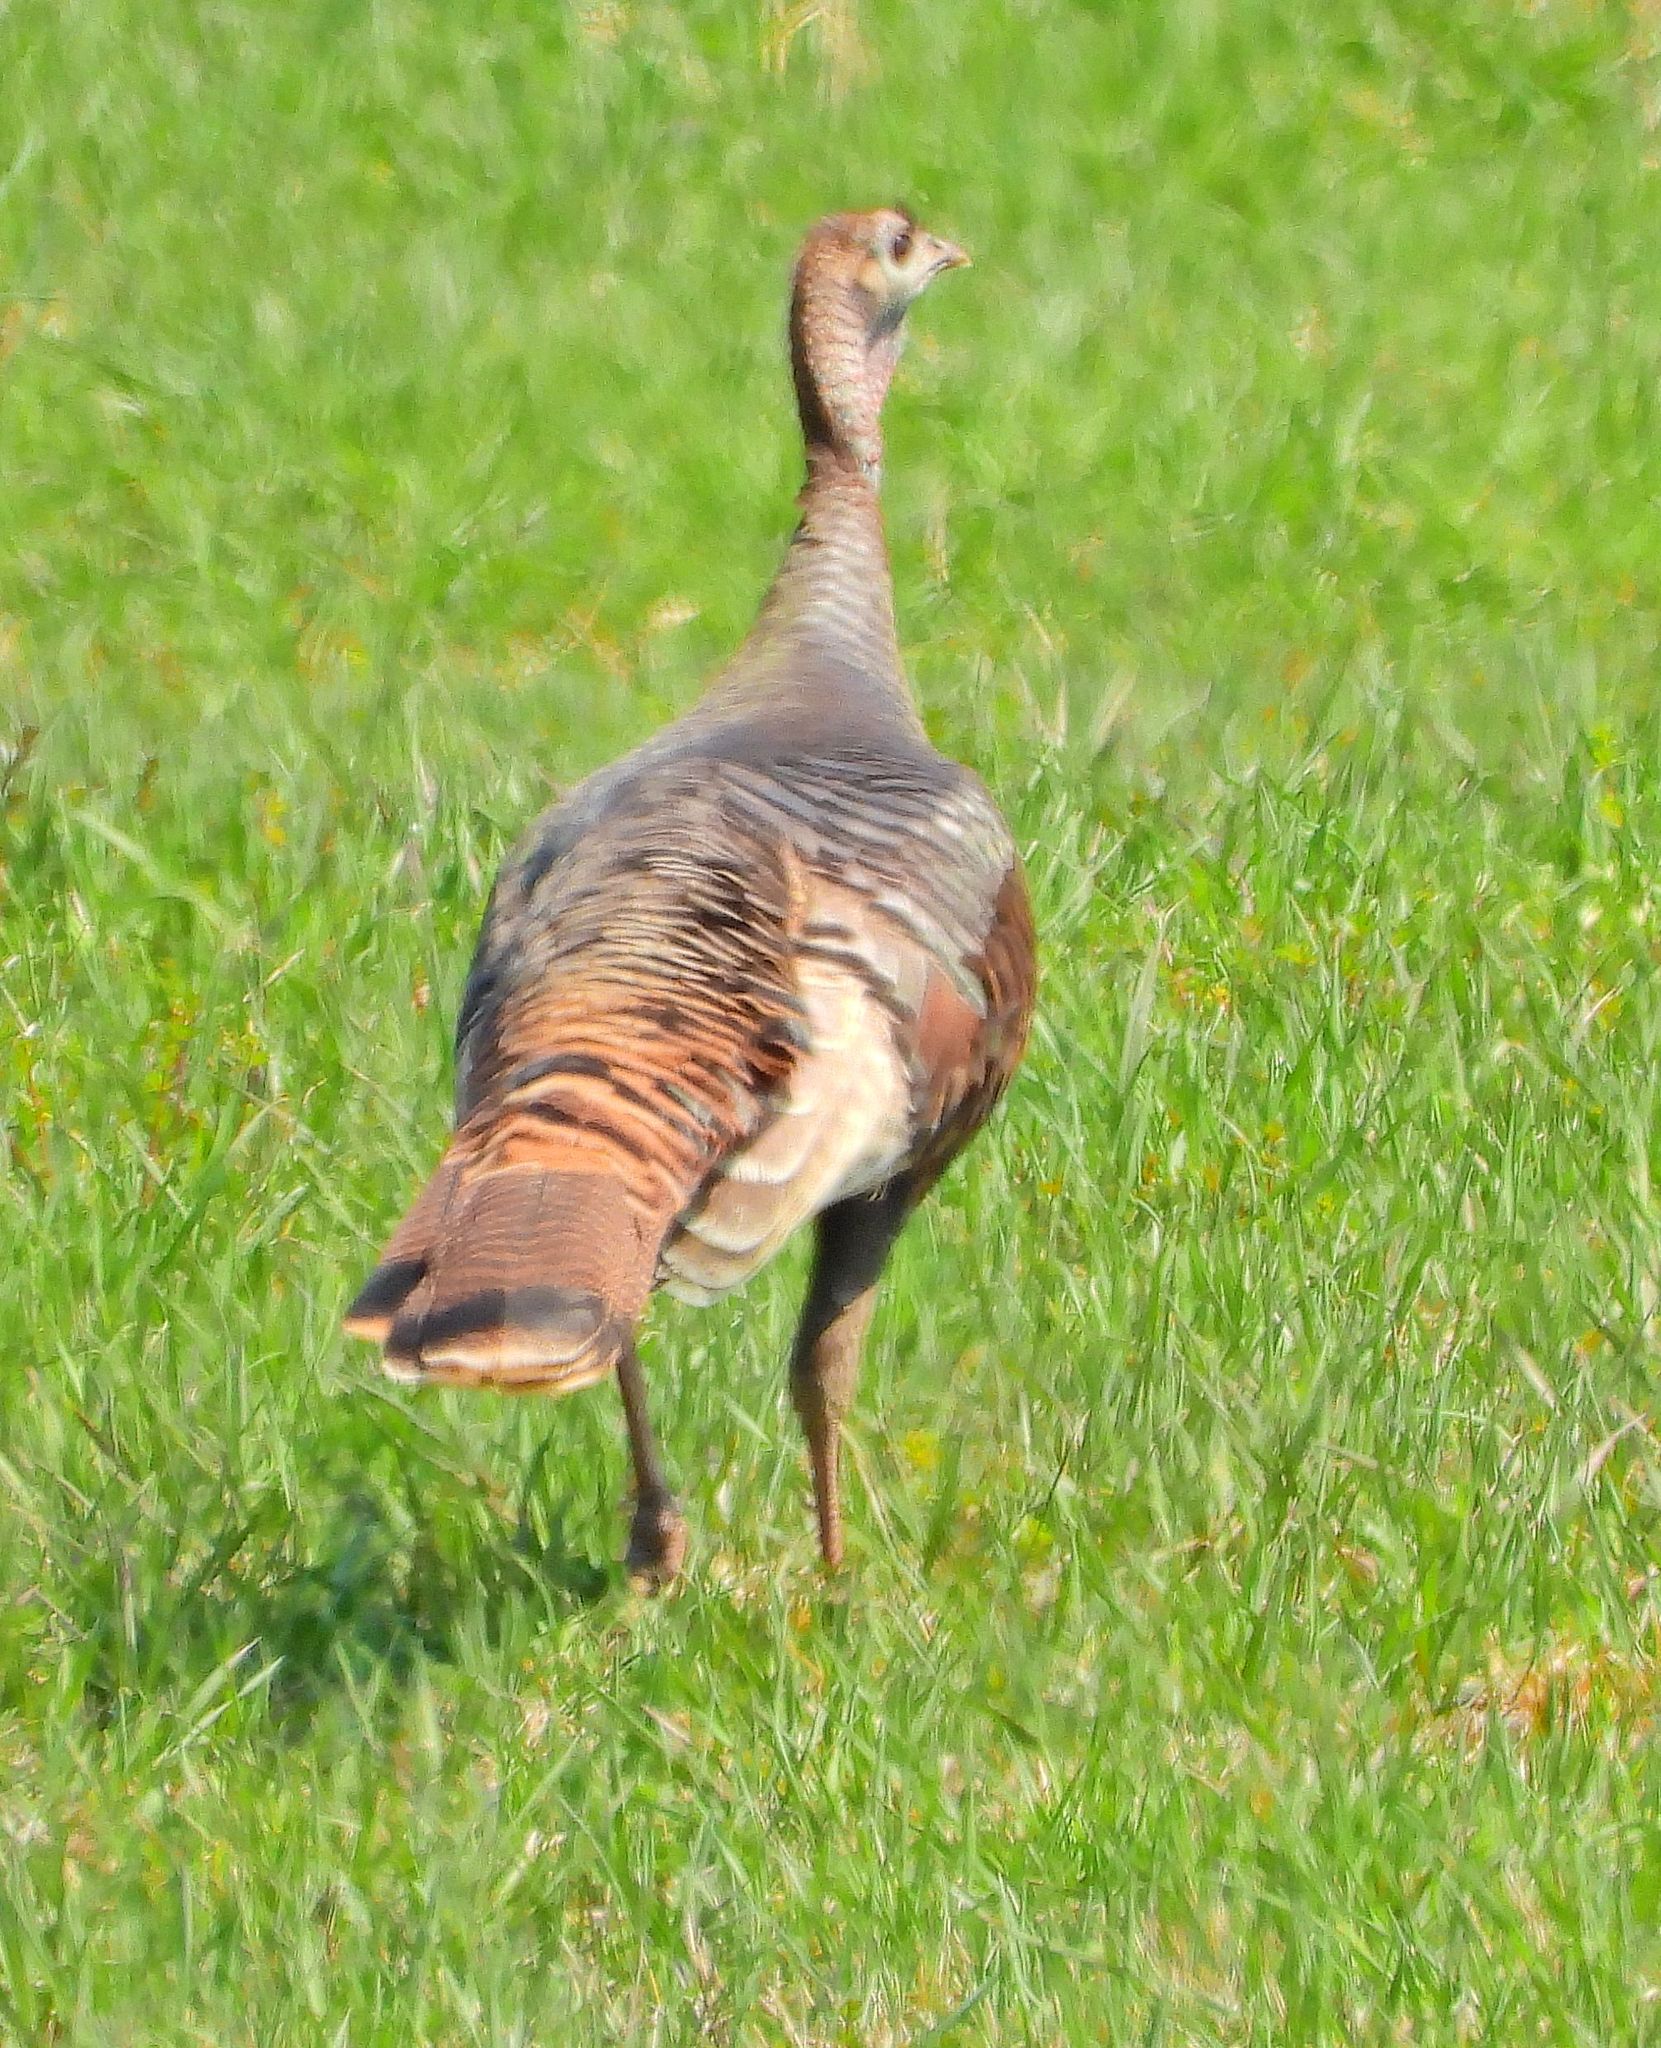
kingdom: Animalia
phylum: Chordata
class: Aves
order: Galliformes
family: Phasianidae
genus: Meleagris
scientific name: Meleagris gallopavo
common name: Wild turkey
